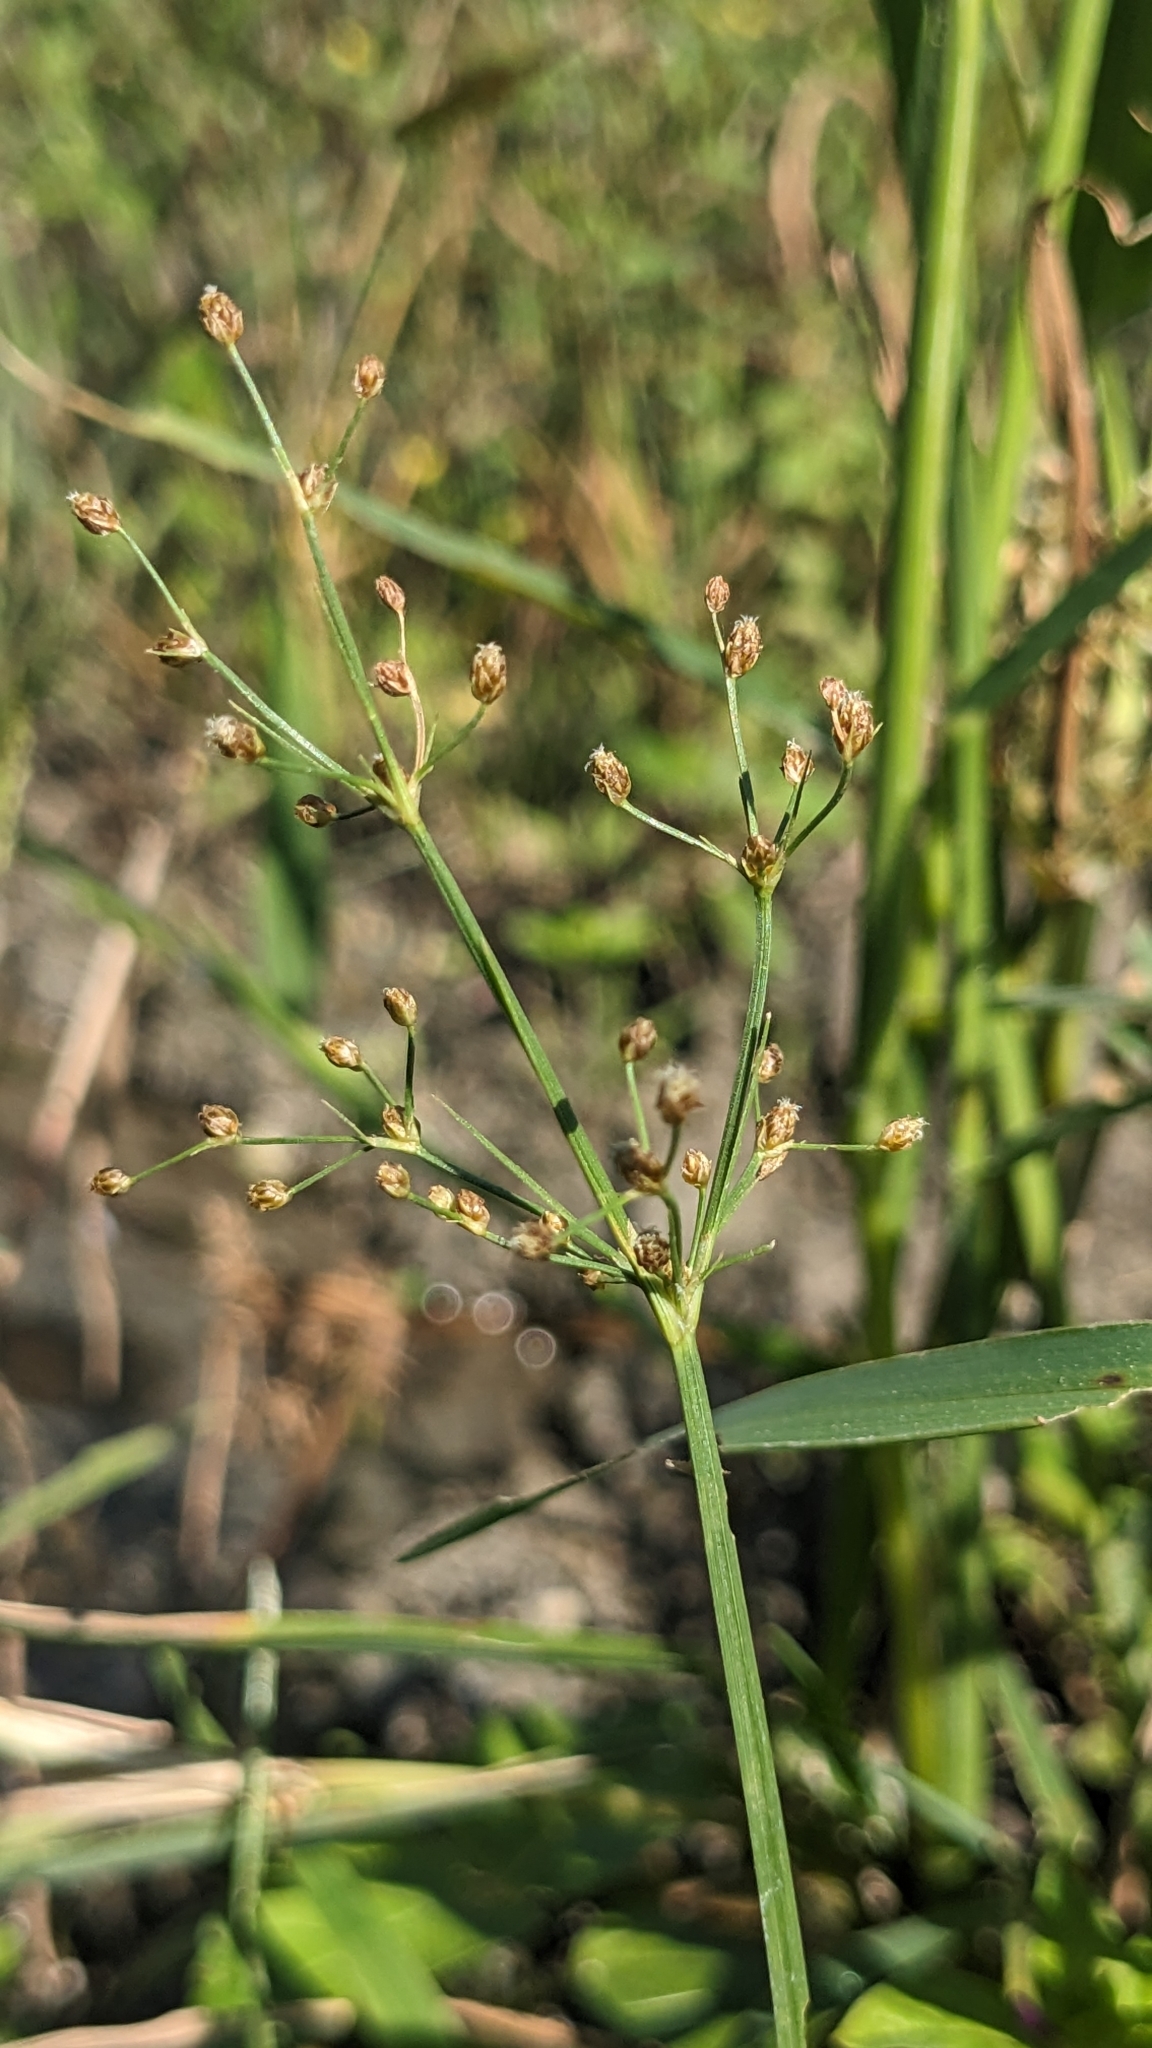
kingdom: Plantae
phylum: Tracheophyta
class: Liliopsida
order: Poales
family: Cyperaceae
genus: Fimbristylis
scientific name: Fimbristylis littoralis
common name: Fimbry
